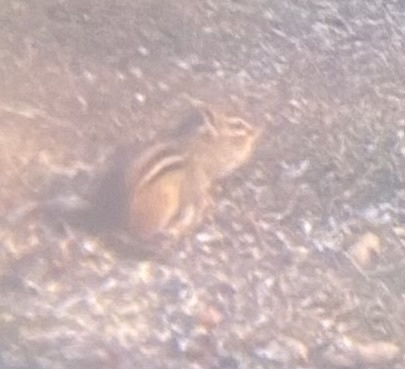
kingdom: Animalia
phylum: Chordata
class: Mammalia
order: Rodentia
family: Sciuridae
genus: Tamias
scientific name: Tamias striatus
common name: Eastern chipmunk
